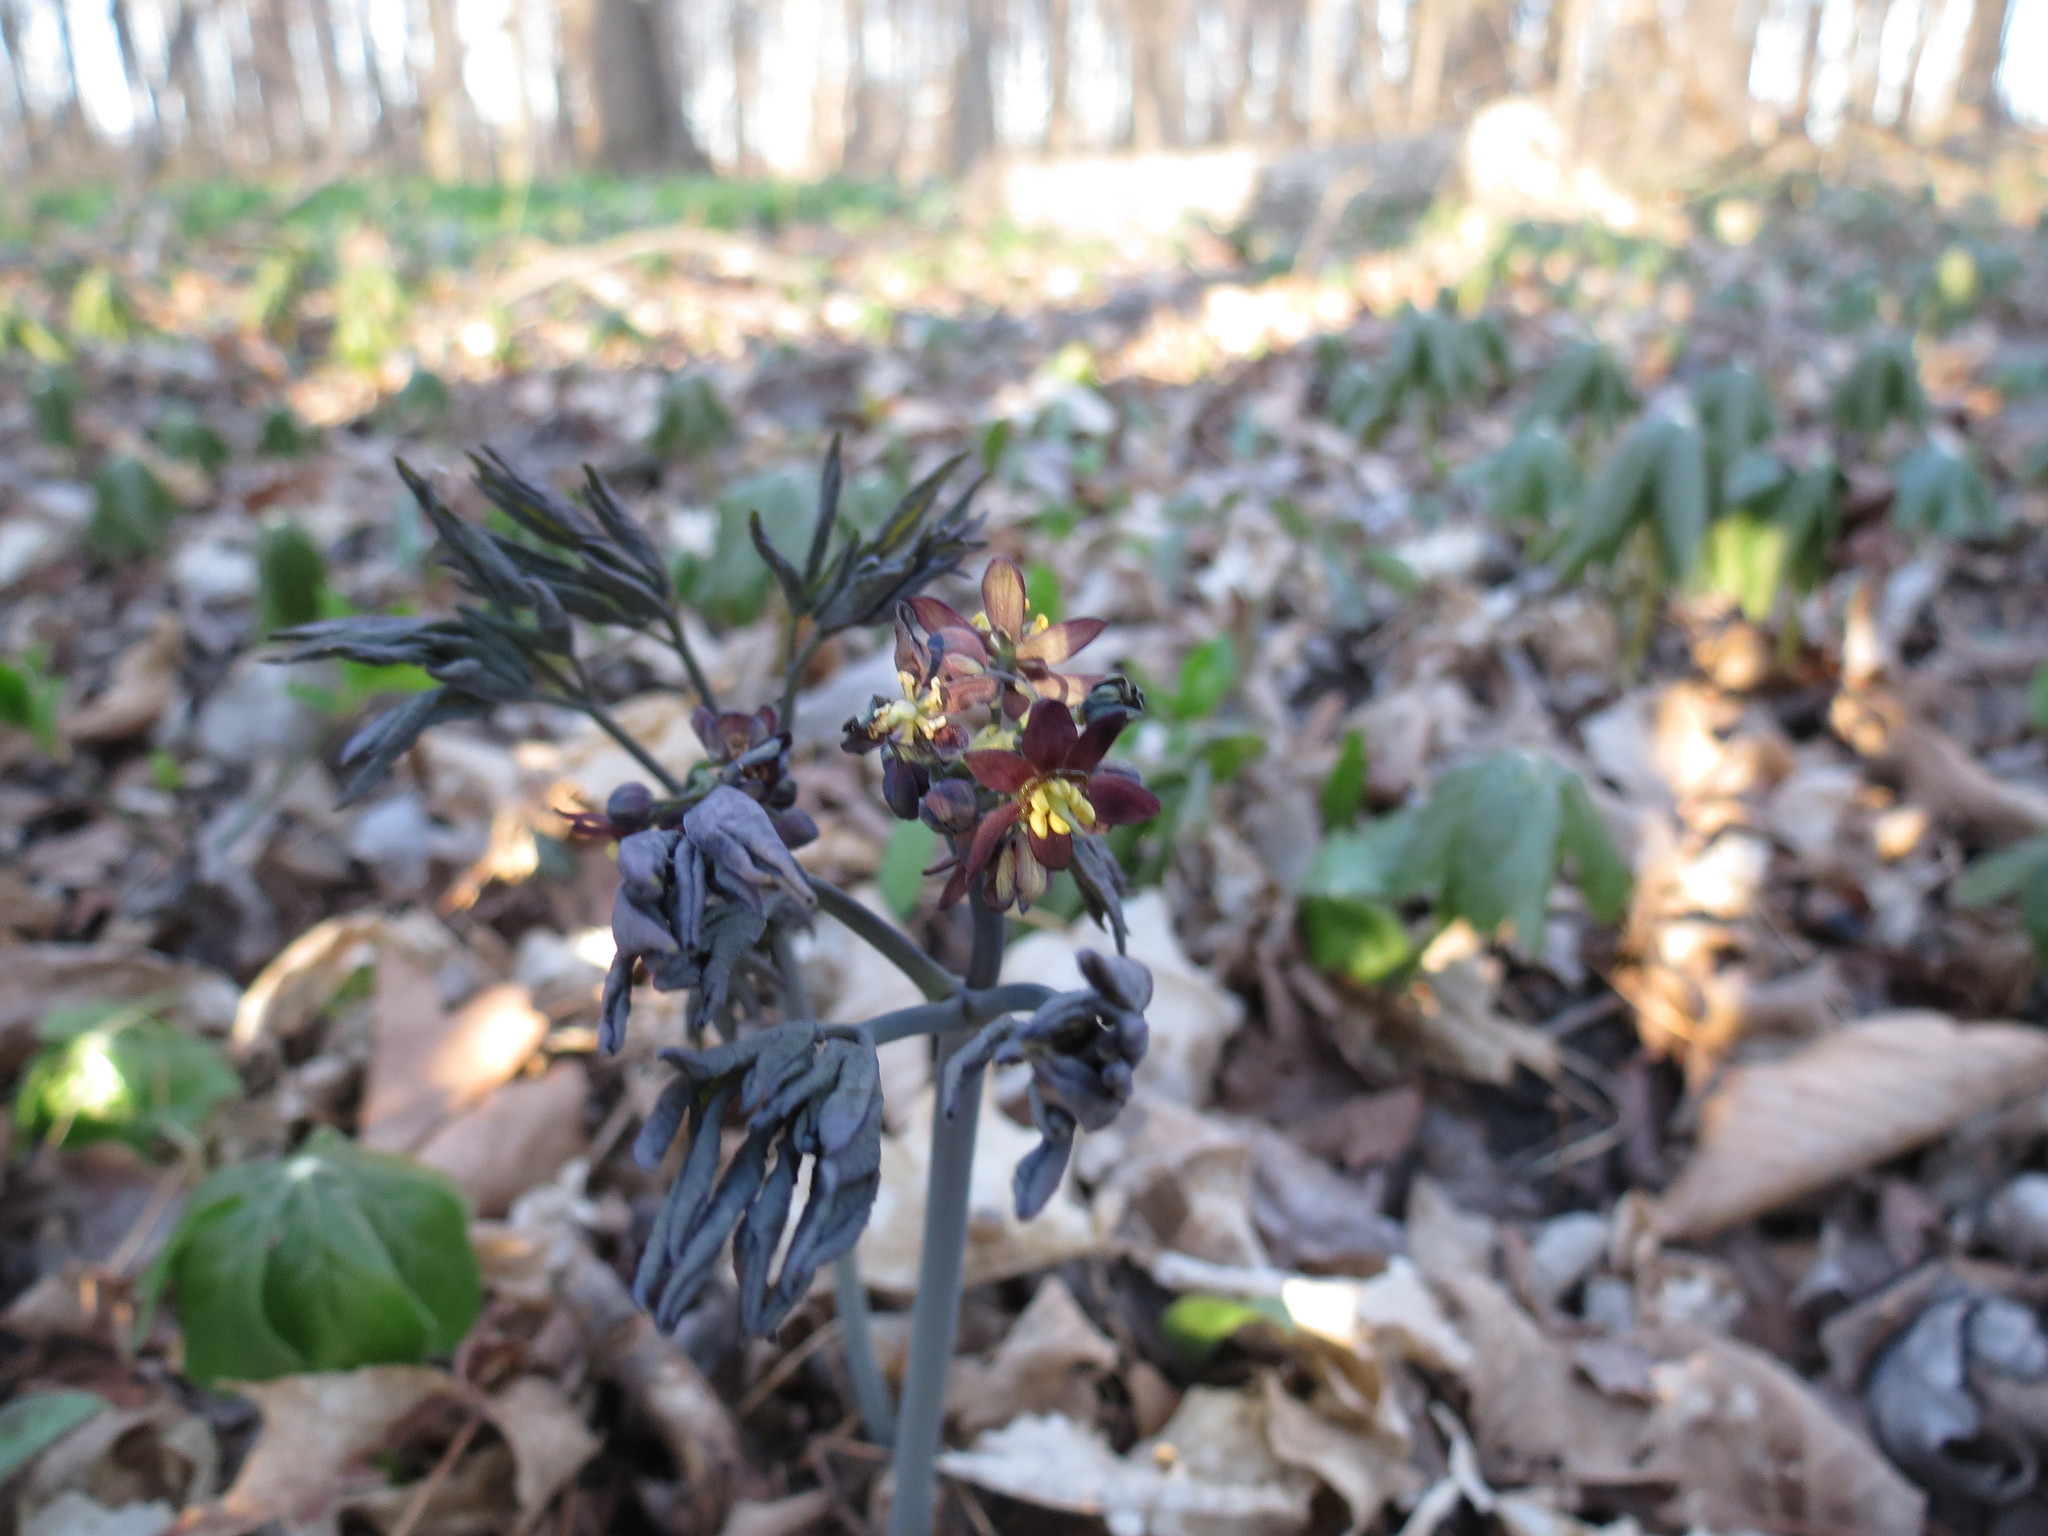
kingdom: Plantae
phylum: Tracheophyta
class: Magnoliopsida
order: Ranunculales
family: Berberidaceae
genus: Caulophyllum
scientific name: Caulophyllum giganteum
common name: Blue cohosh
